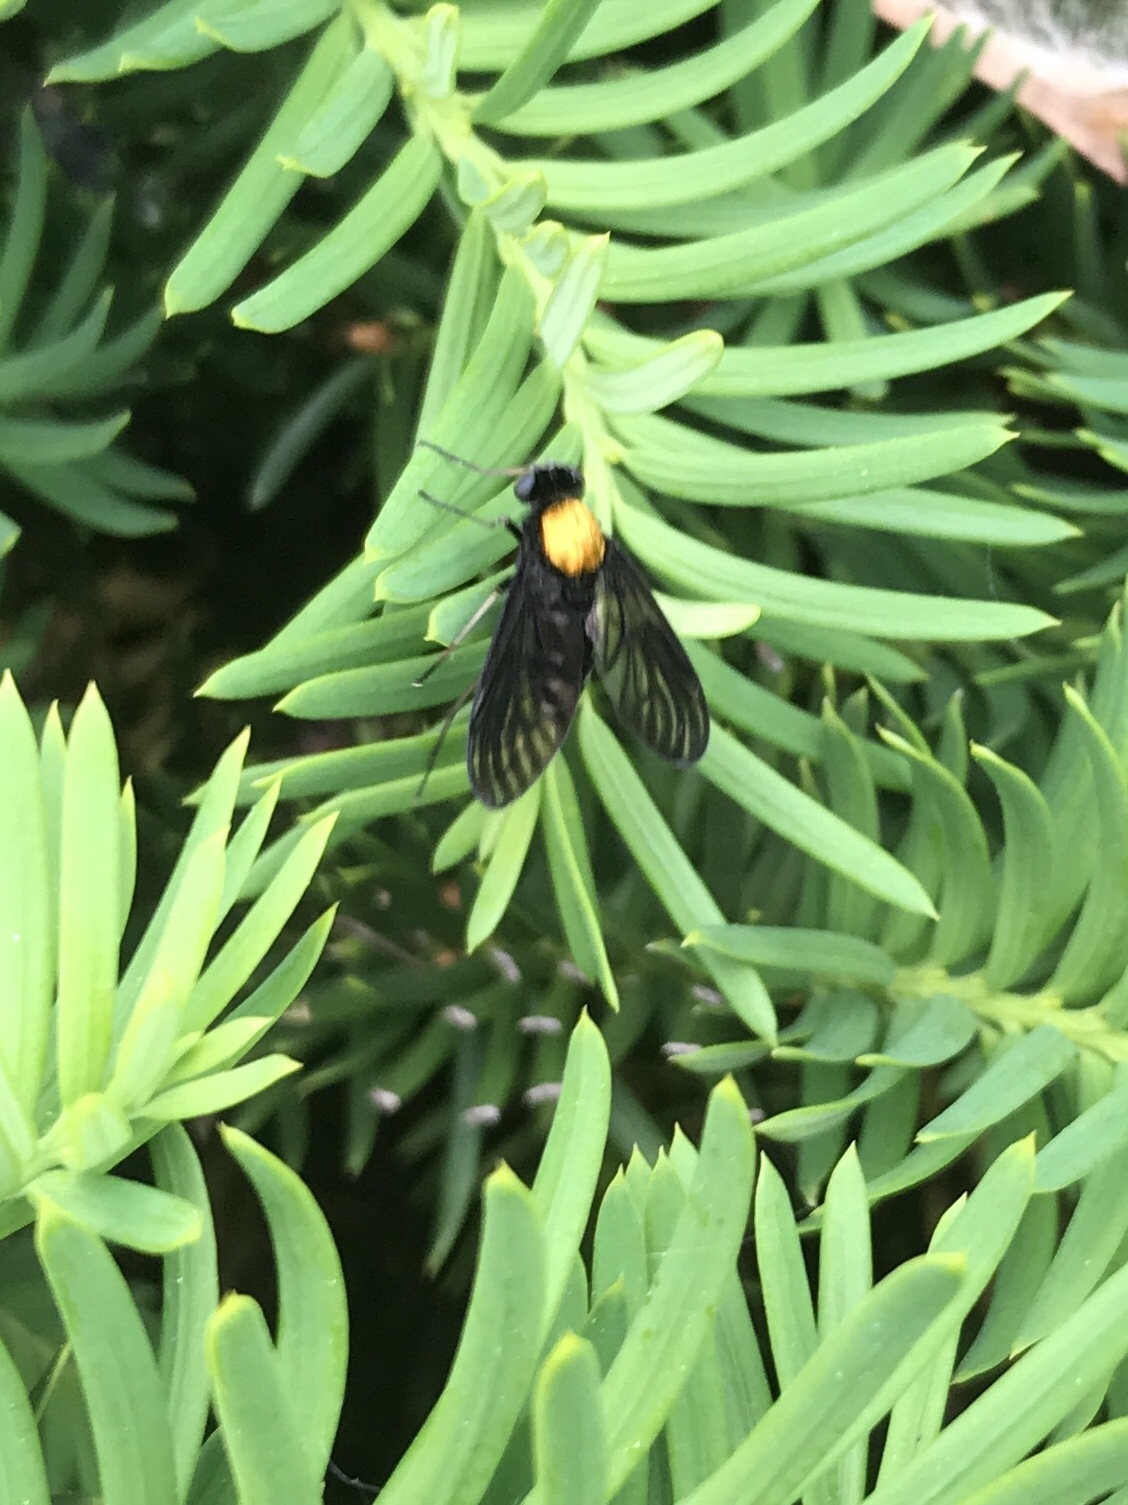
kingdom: Animalia
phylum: Arthropoda
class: Insecta
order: Diptera
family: Rhagionidae
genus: Chrysopilus
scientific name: Chrysopilus thoracicus
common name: Golden-backed snipe fly
